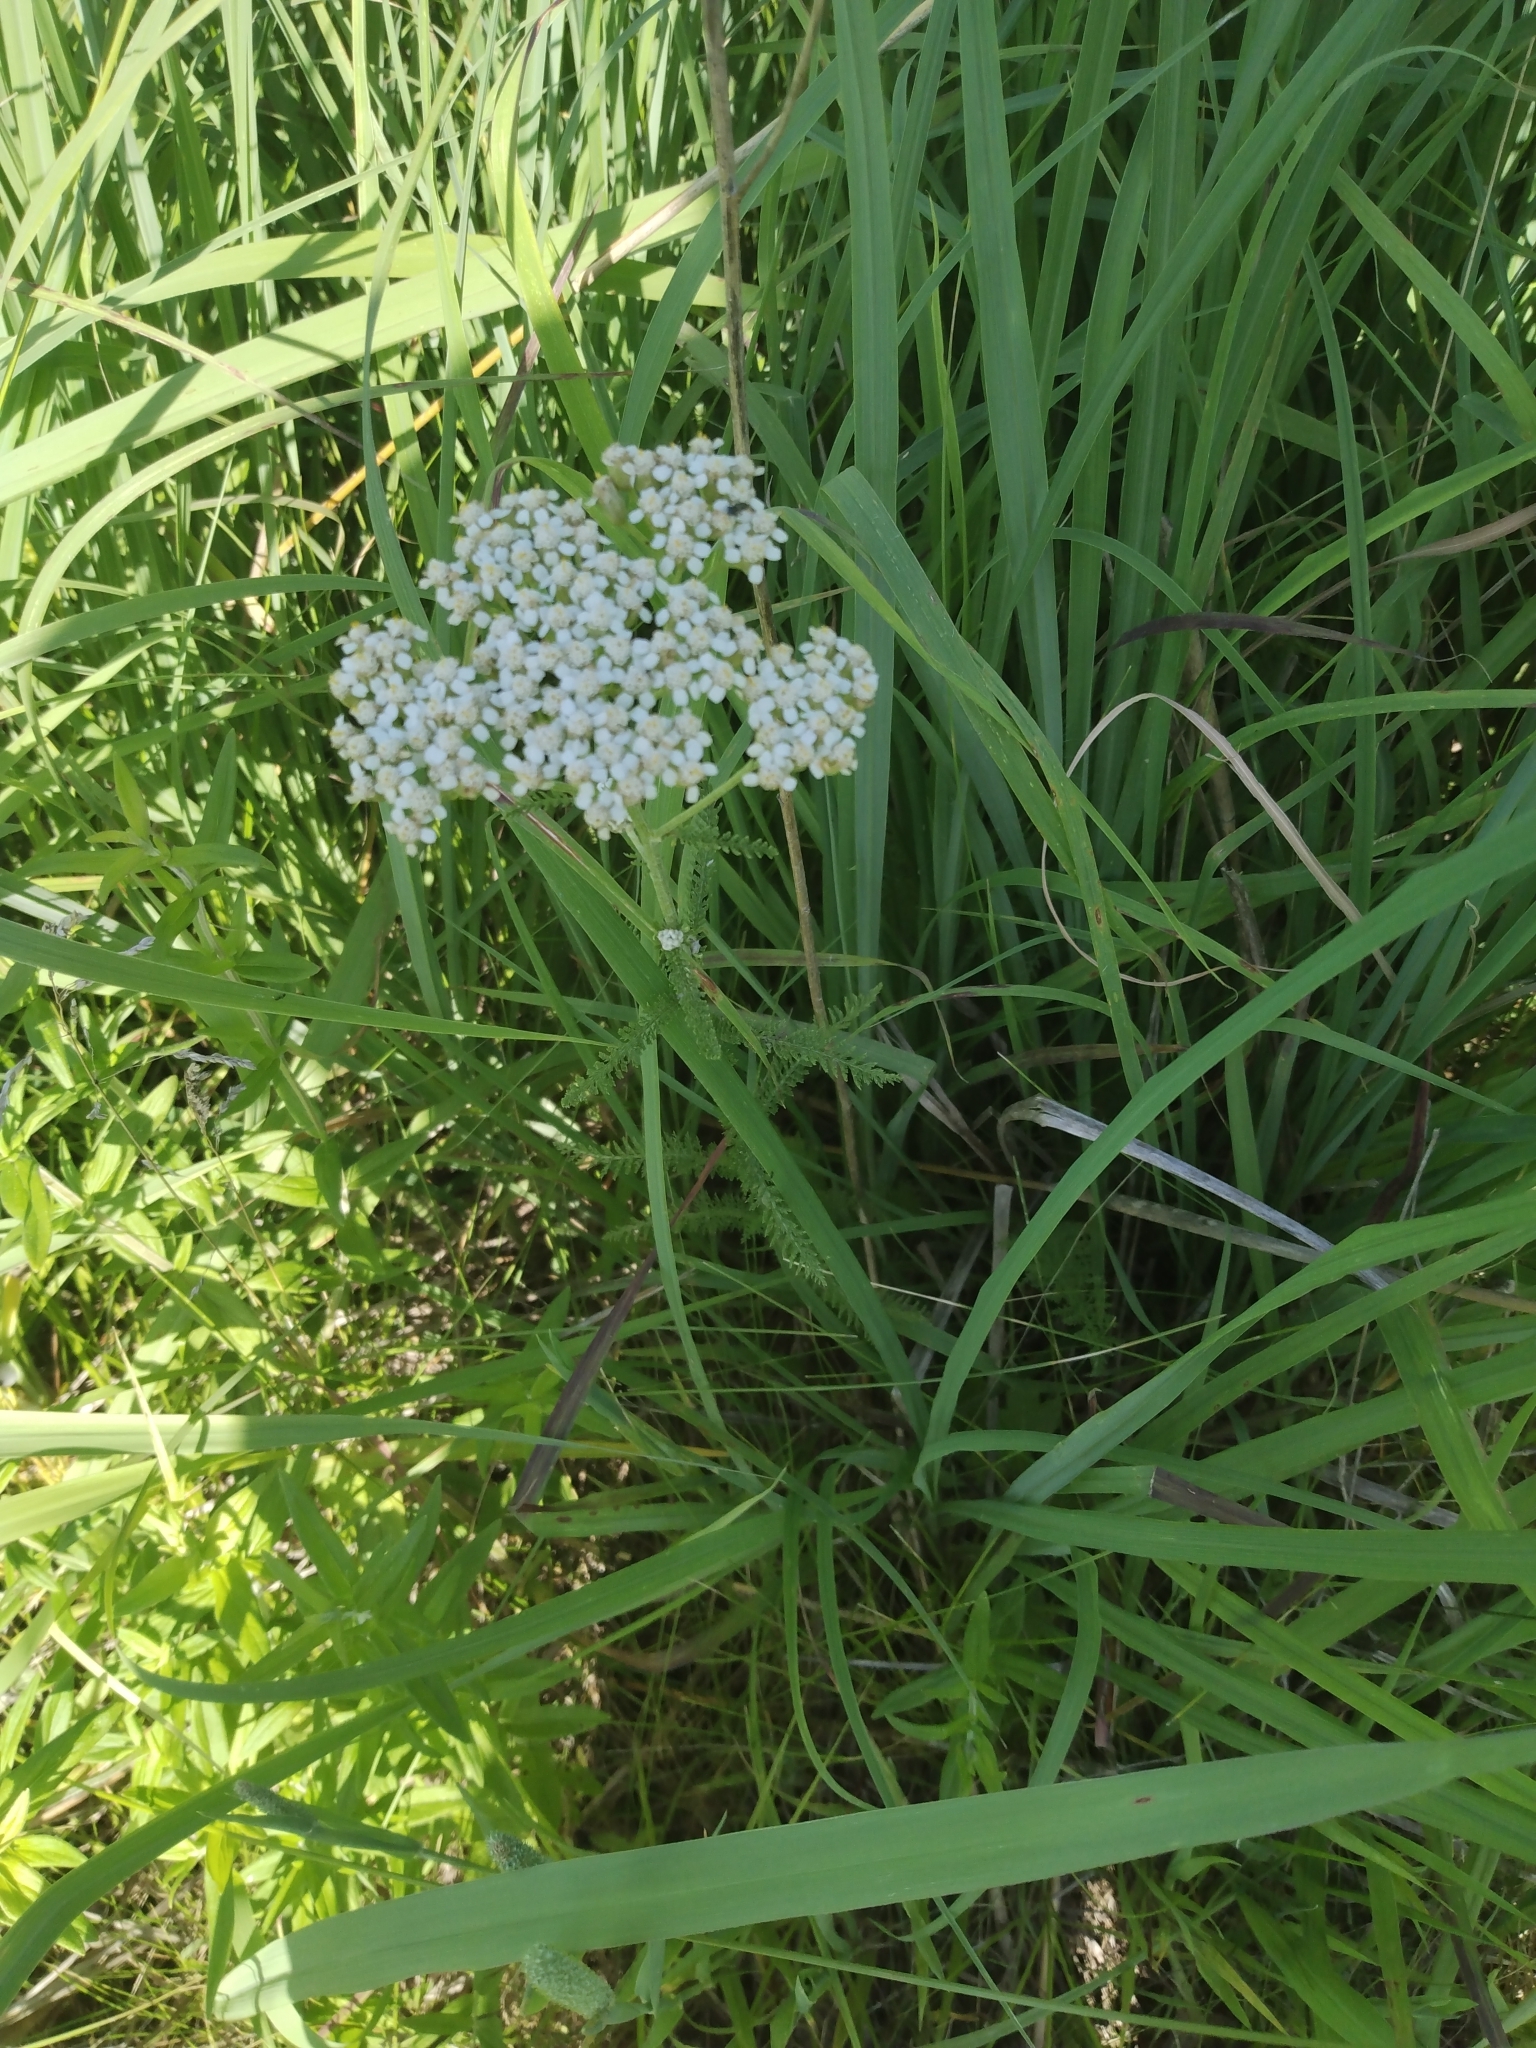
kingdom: Plantae
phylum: Tracheophyta
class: Magnoliopsida
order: Asterales
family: Asteraceae
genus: Achillea
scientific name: Achillea millefolium
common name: Yarrow
